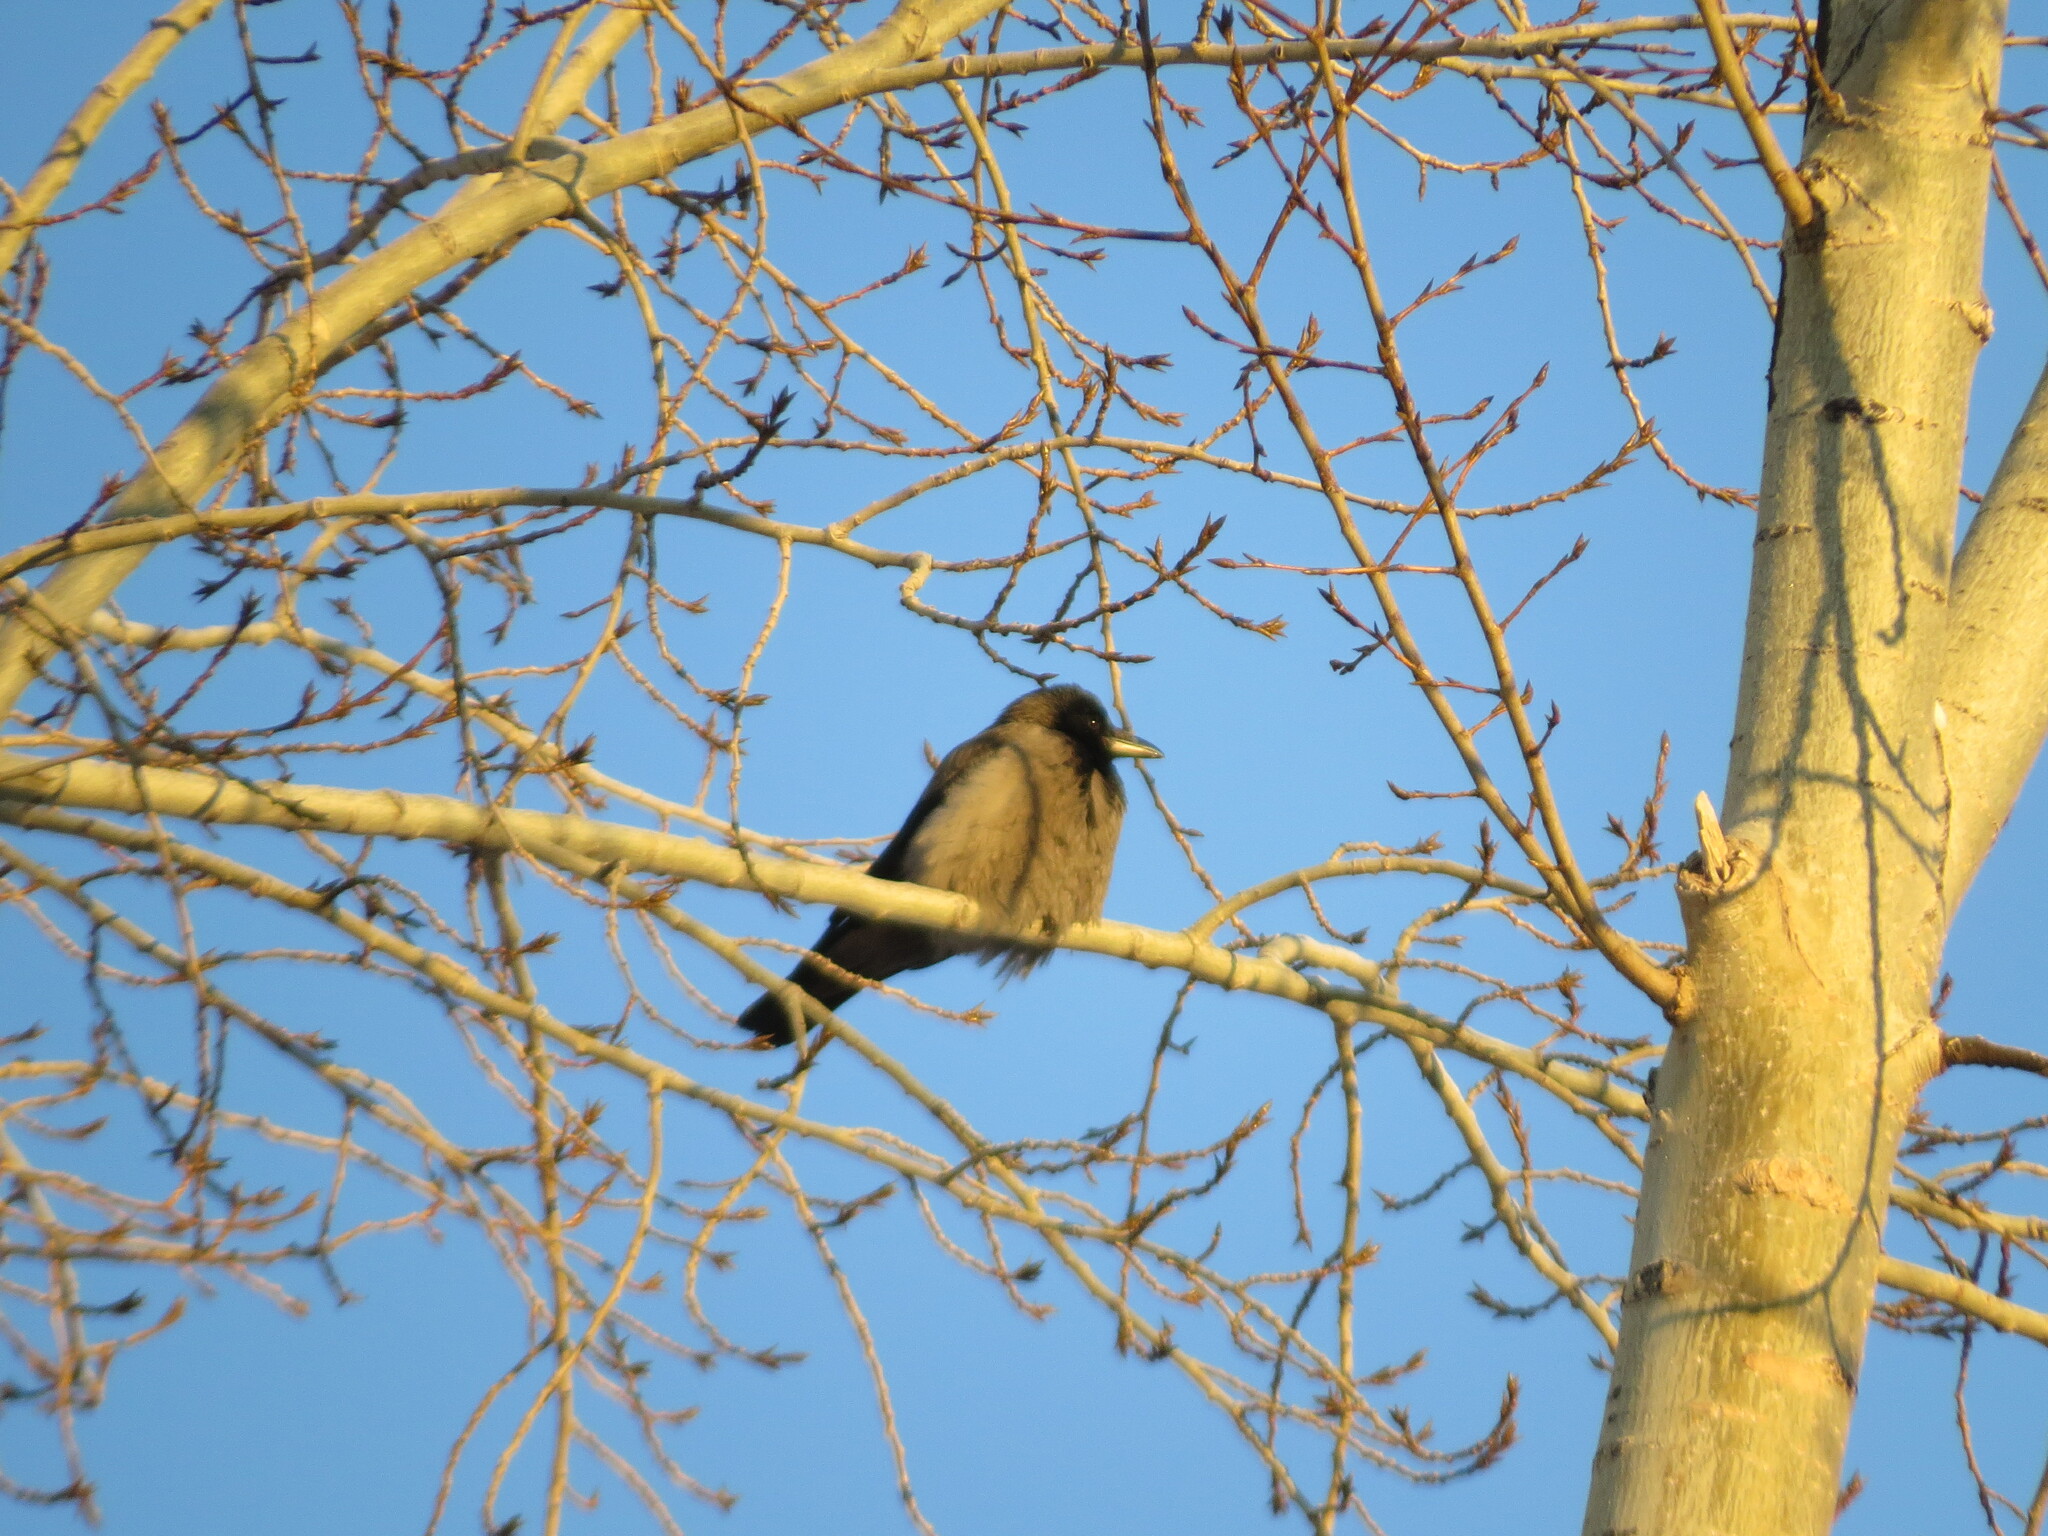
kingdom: Animalia
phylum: Chordata
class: Aves
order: Passeriformes
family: Corvidae
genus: Corvus
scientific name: Corvus cornix
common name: Hooded crow
